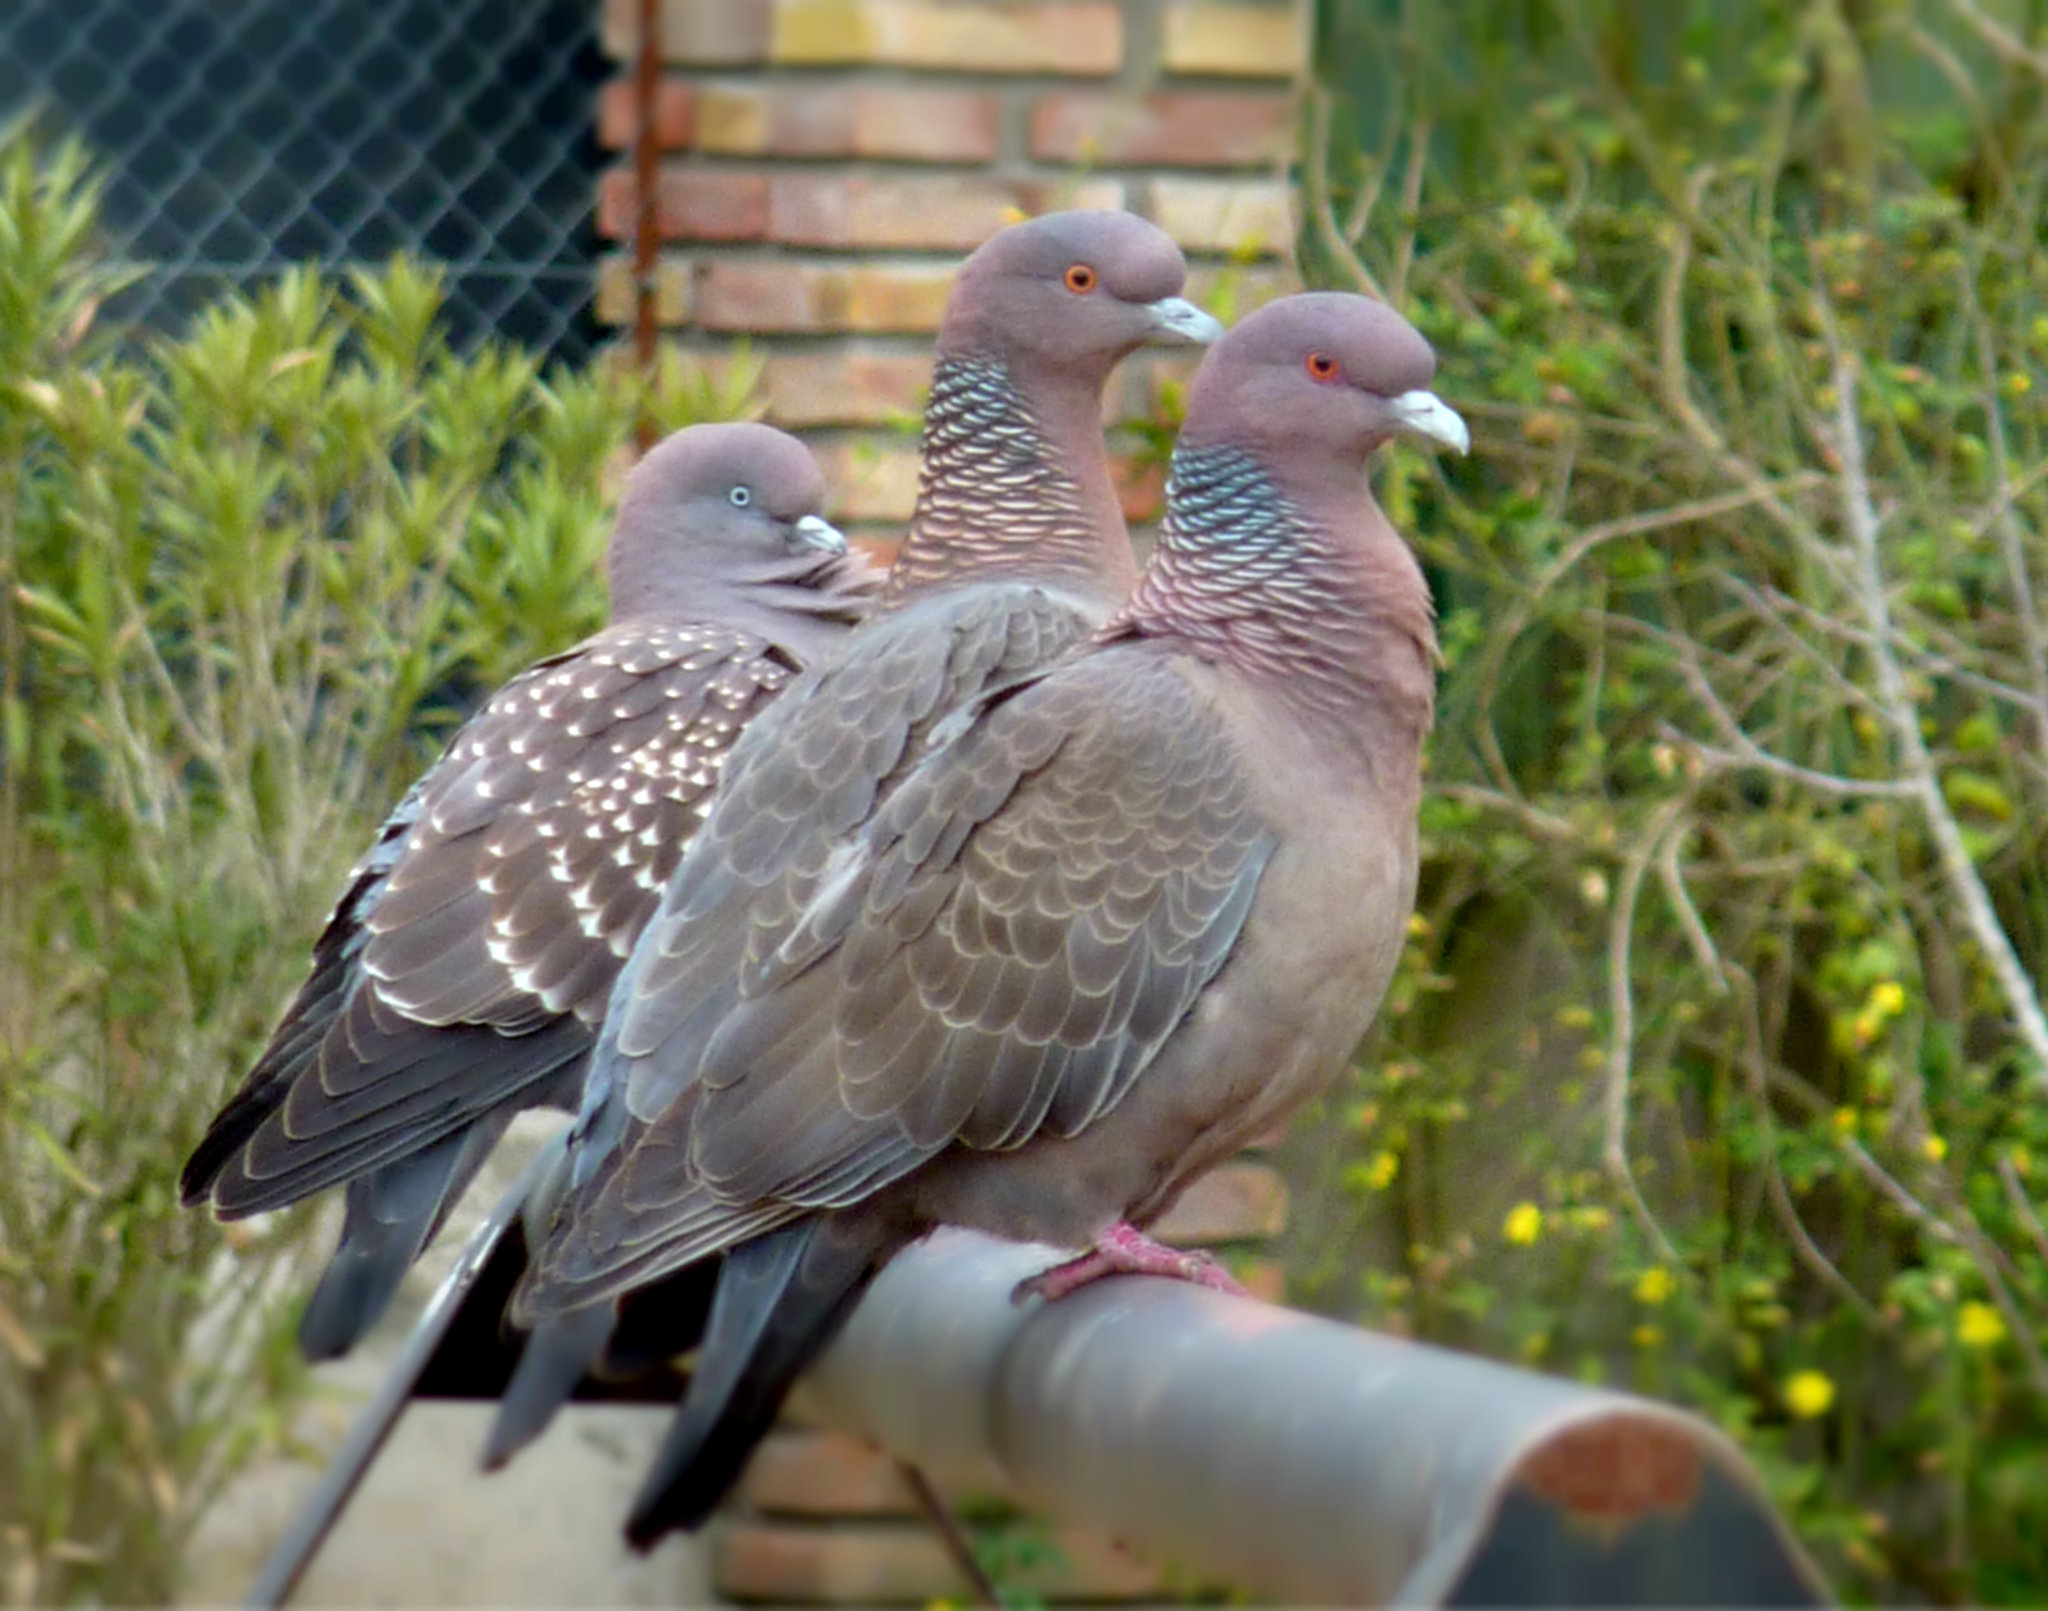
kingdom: Animalia
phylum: Chordata
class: Aves
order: Columbiformes
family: Columbidae
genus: Patagioenas
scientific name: Patagioenas picazuro
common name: Picazuro pigeon
